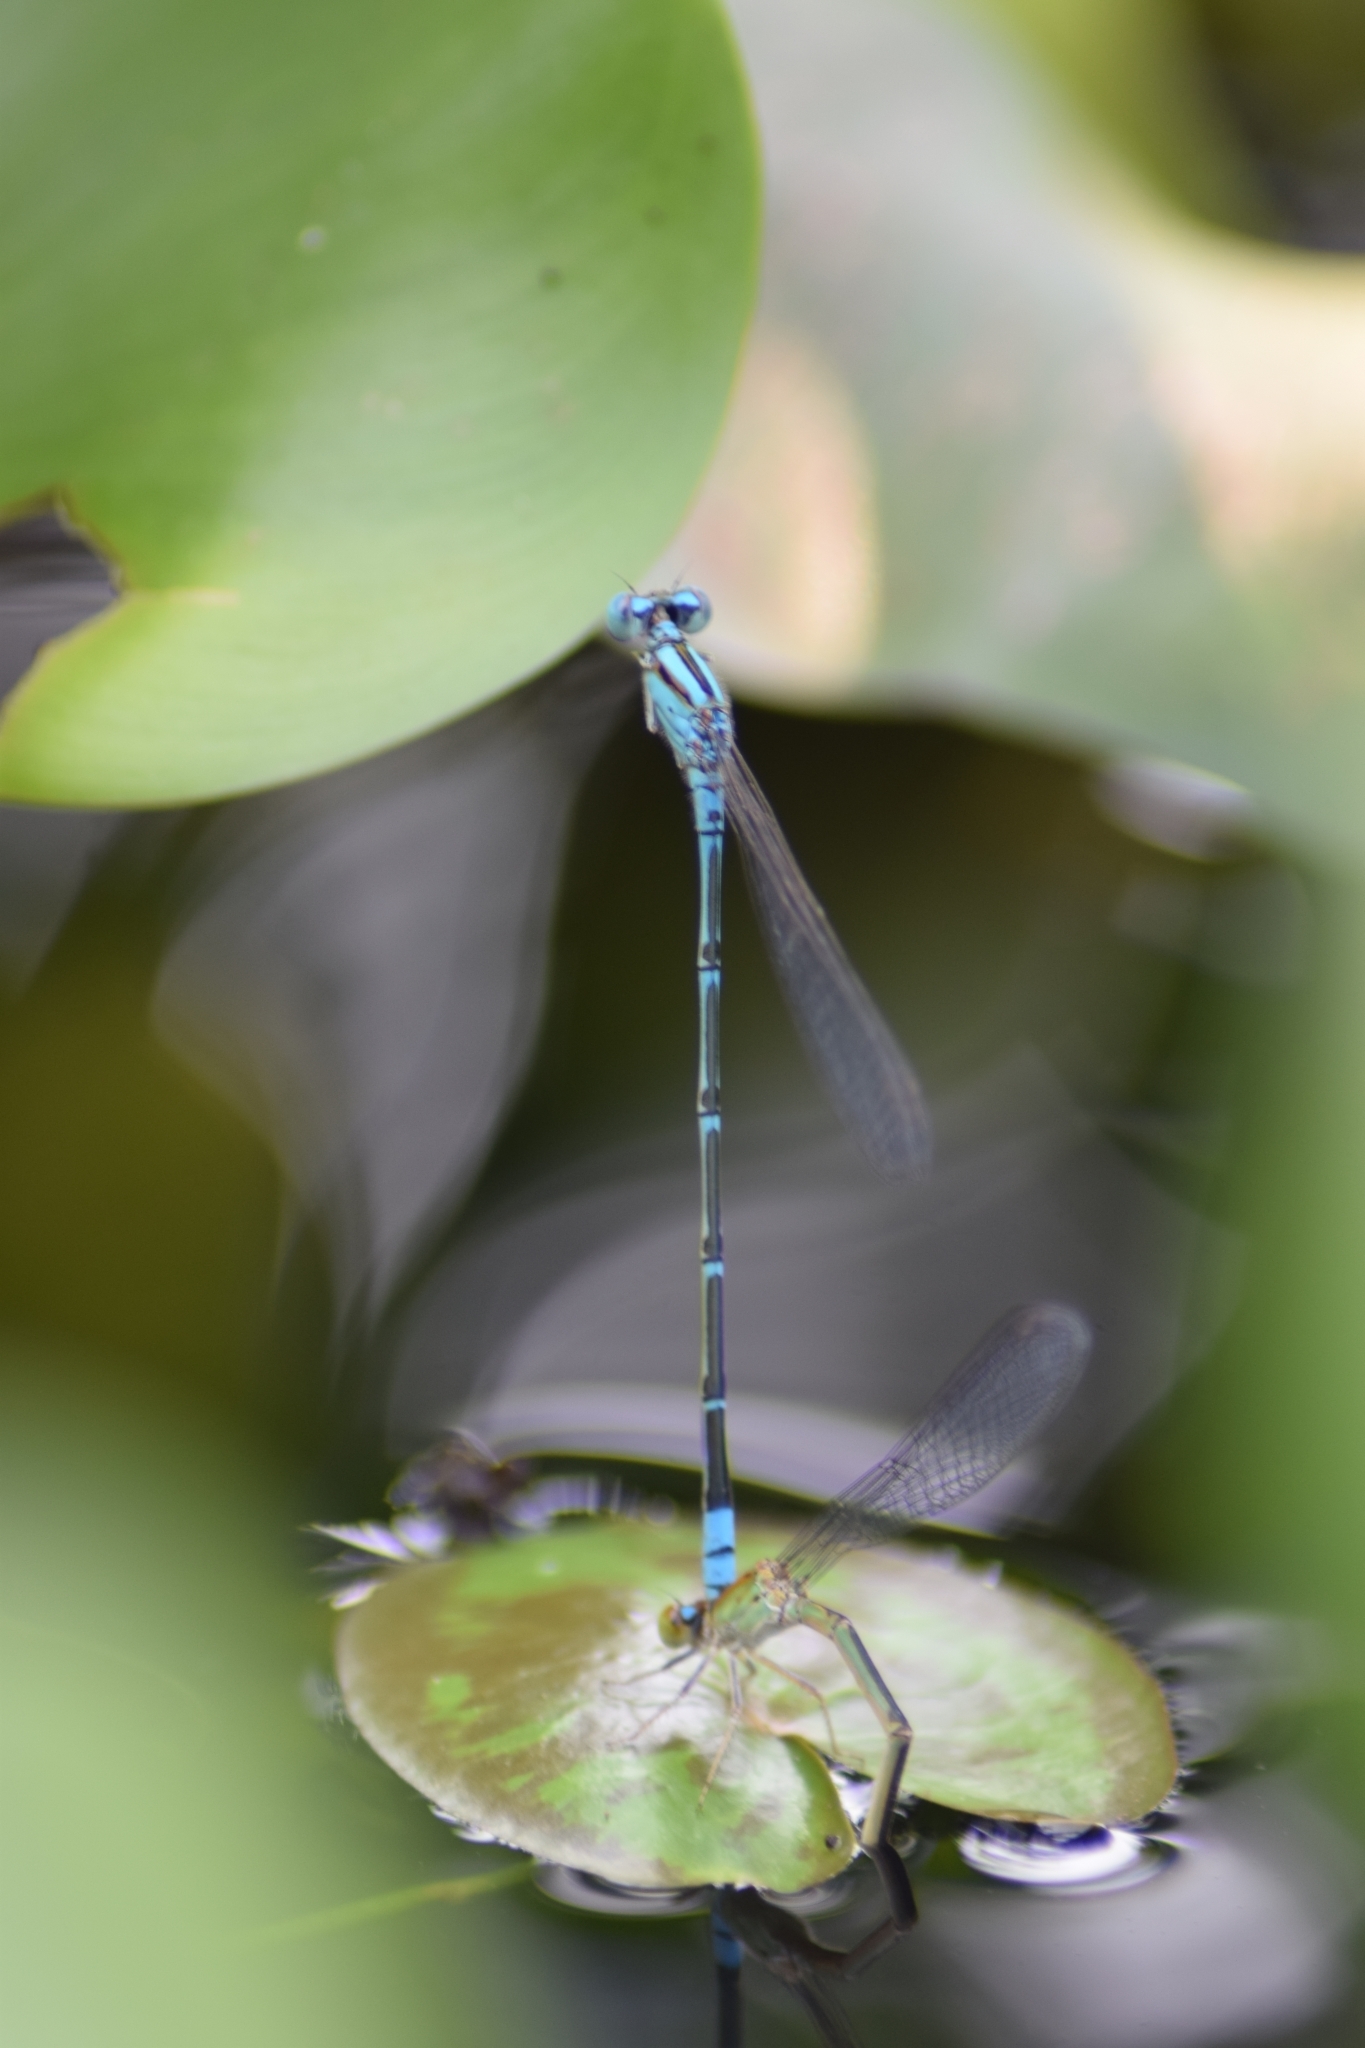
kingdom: Animalia
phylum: Arthropoda
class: Insecta
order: Odonata
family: Coenagrionidae
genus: Pseudagrion
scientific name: Pseudagrion microcephalum
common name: Blue riverdamsel
